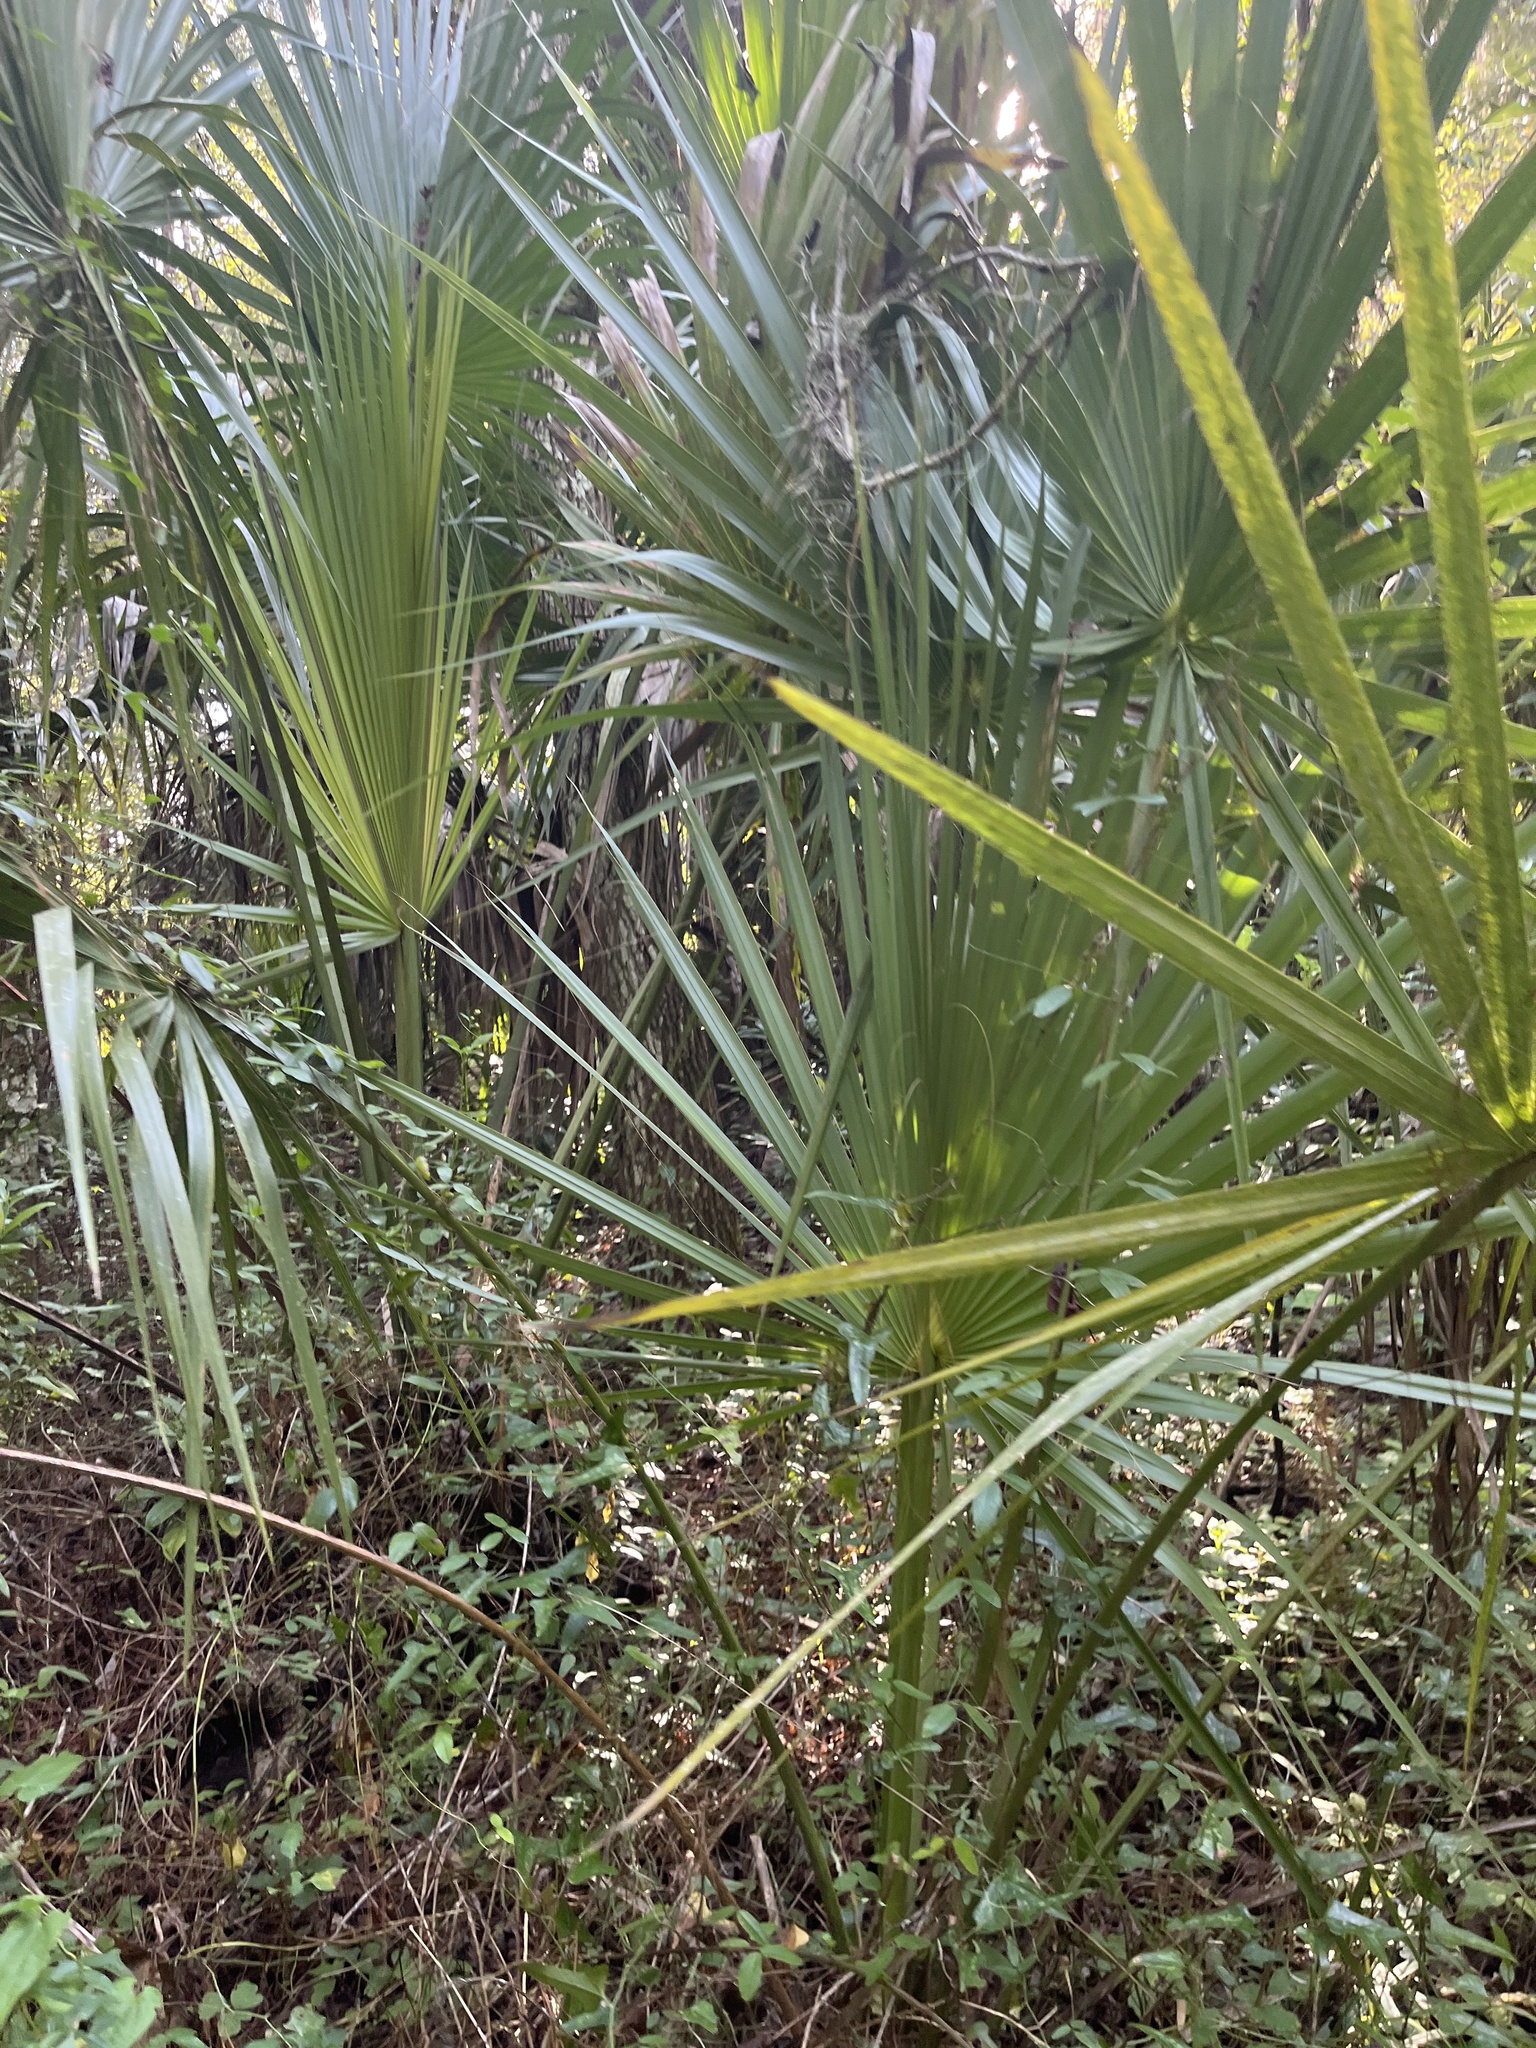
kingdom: Plantae
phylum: Tracheophyta
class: Liliopsida
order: Arecales
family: Arecaceae
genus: Sabal
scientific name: Sabal palmetto
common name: Blue palmetto
